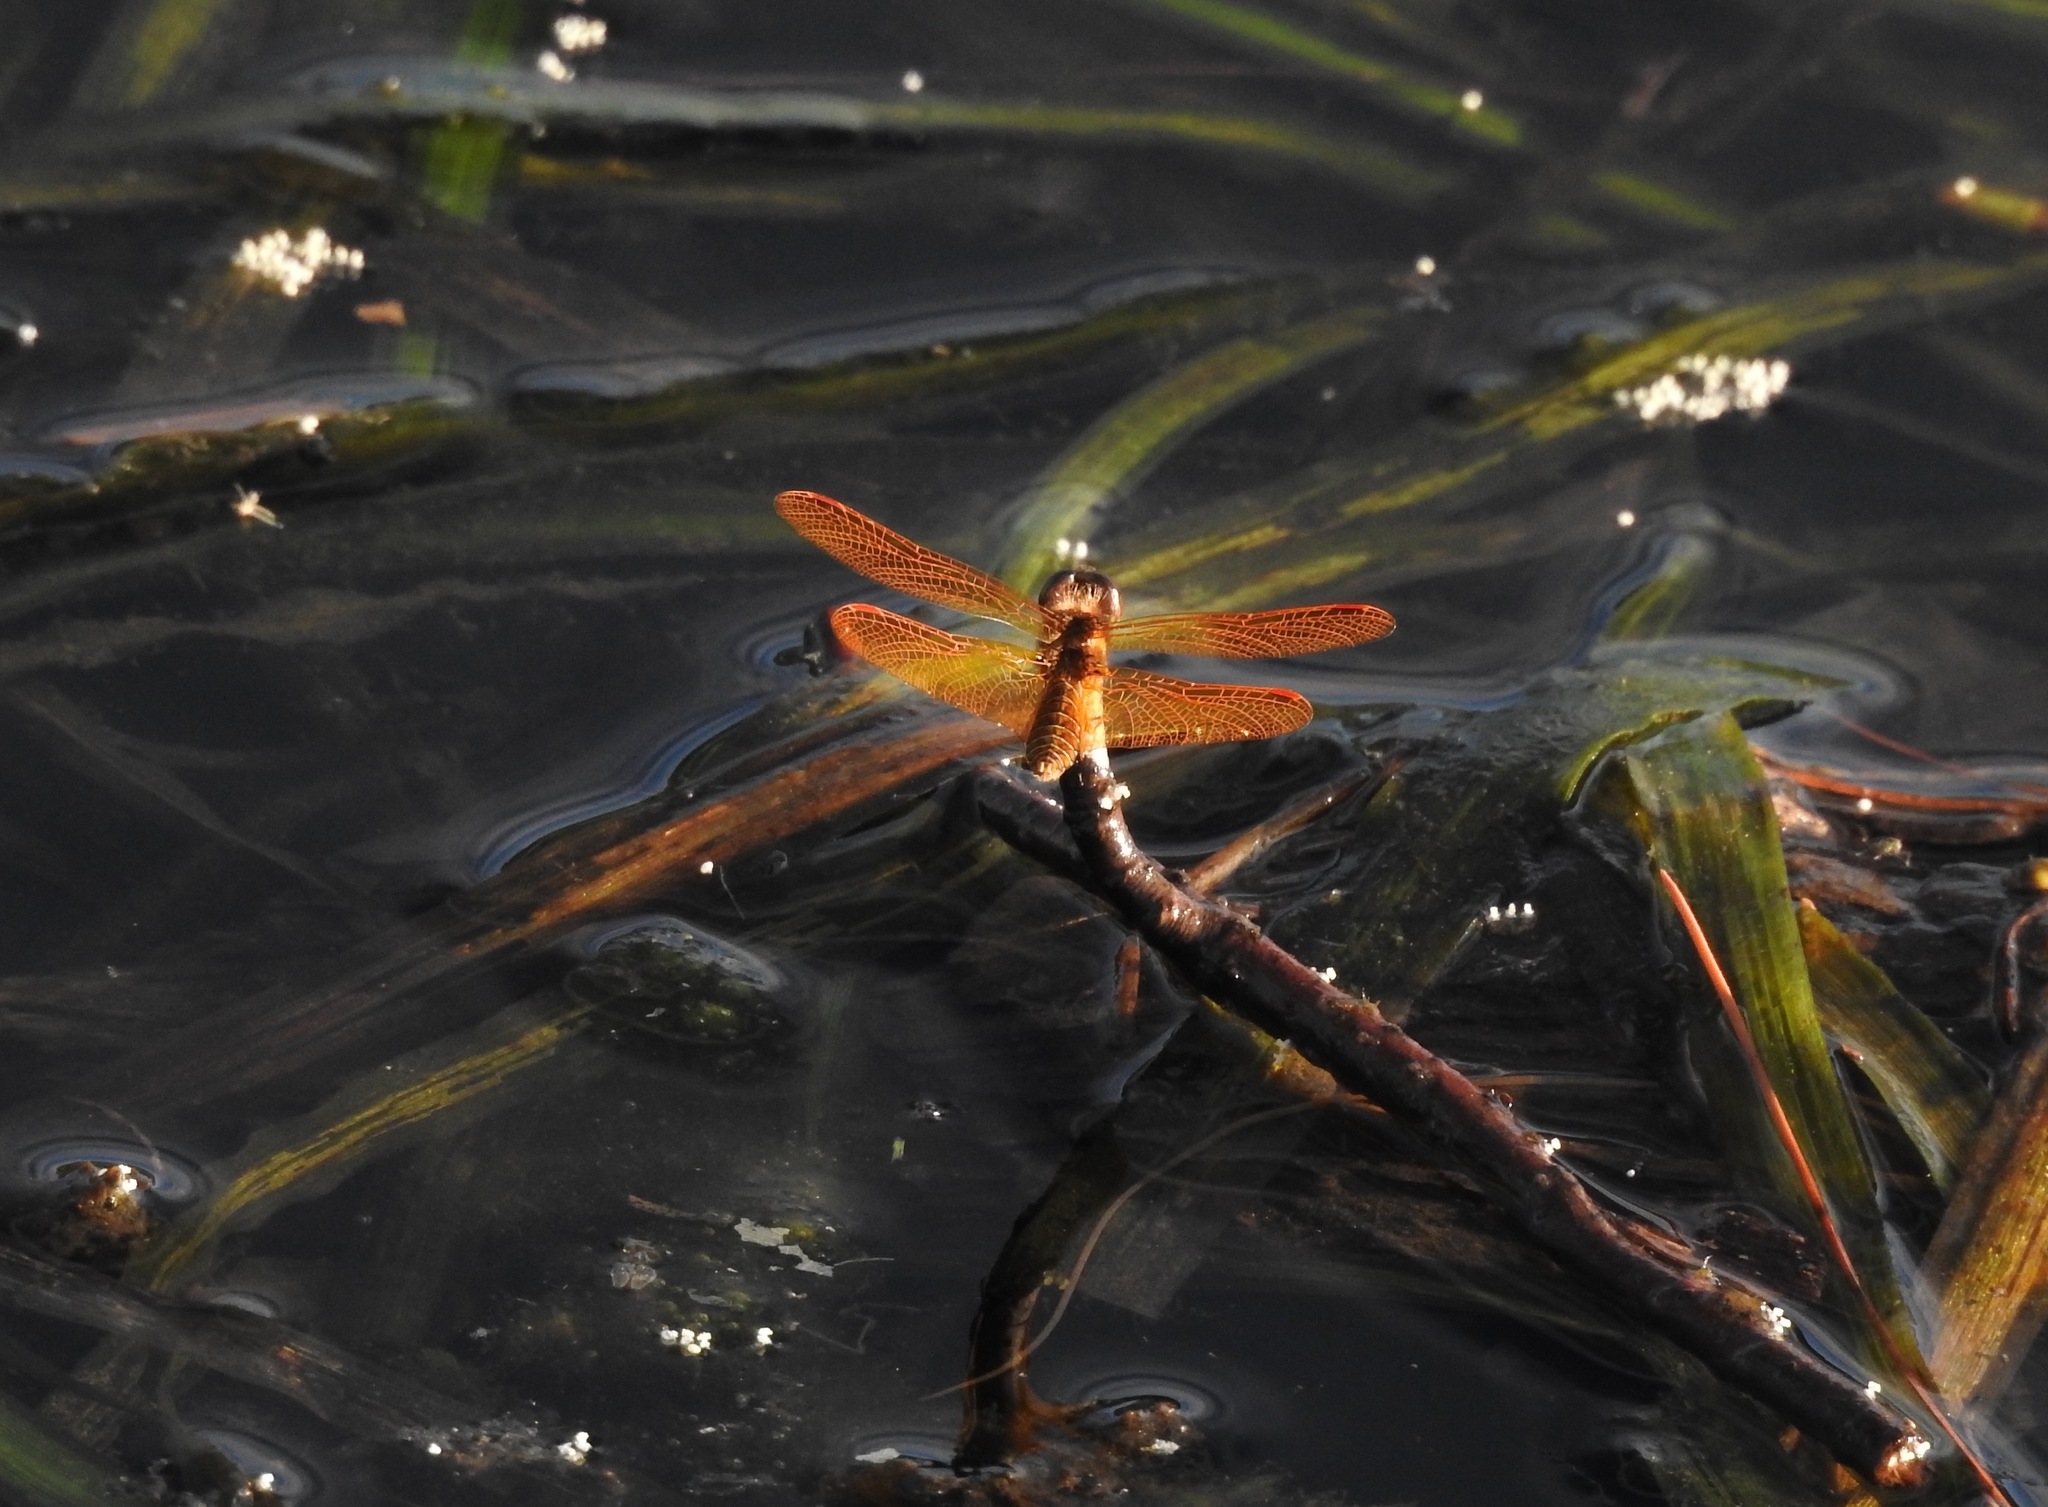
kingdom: Animalia
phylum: Arthropoda
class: Insecta
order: Odonata
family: Libellulidae
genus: Perithemis
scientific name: Perithemis tenera
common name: Eastern amberwing
